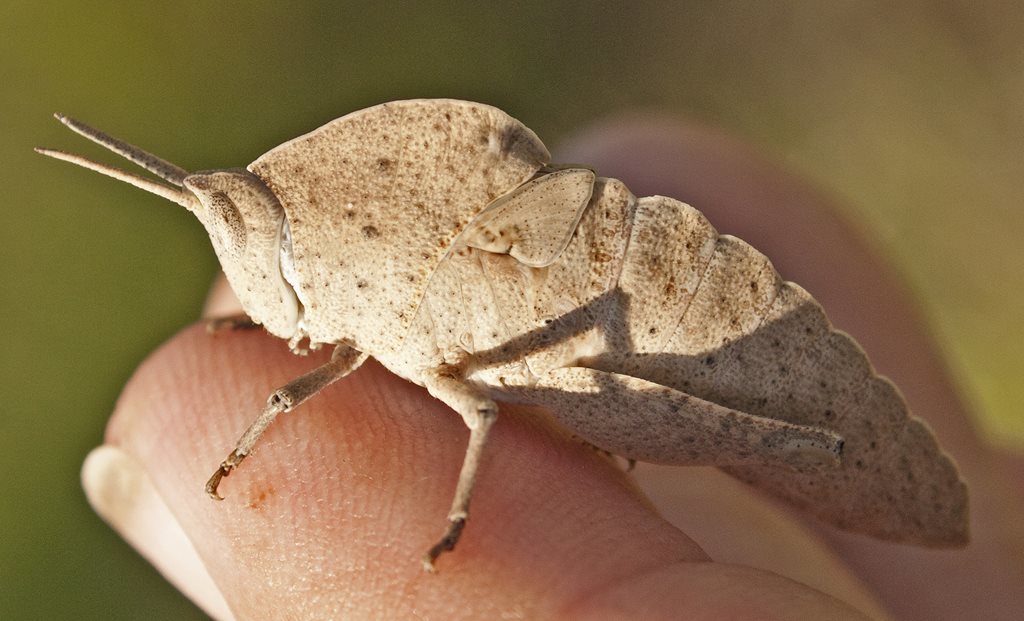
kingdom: Animalia
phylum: Arthropoda
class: Insecta
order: Orthoptera
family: Acrididae
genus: Goniaea
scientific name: Goniaea australasiae
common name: Gumleaf grasshopper
